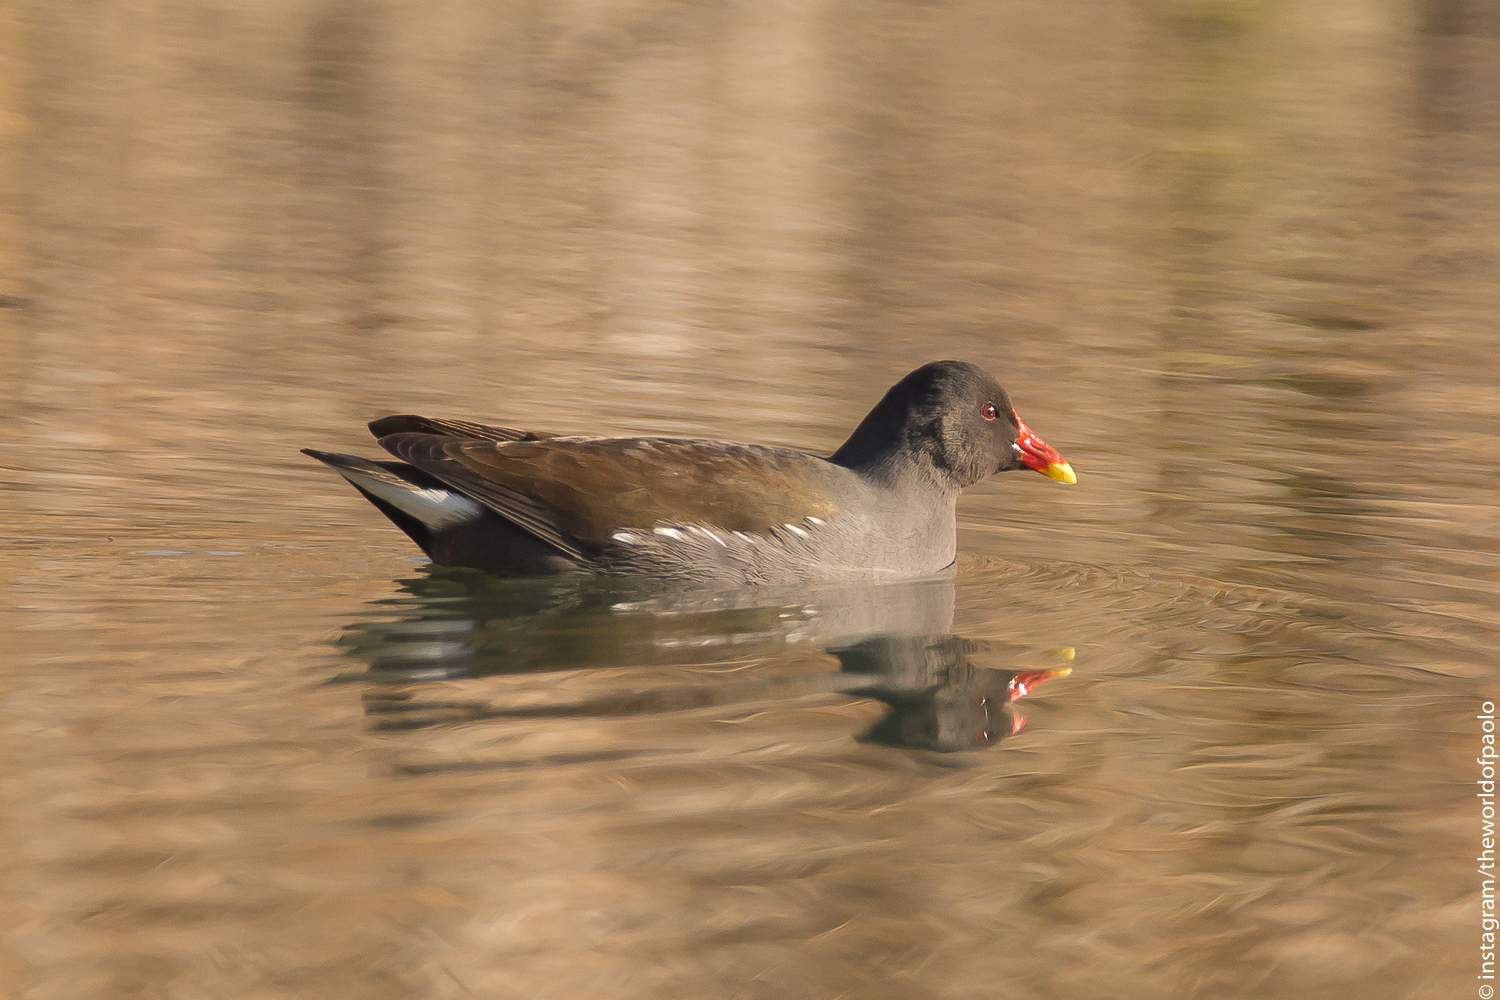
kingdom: Animalia
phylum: Chordata
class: Aves
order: Gruiformes
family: Rallidae
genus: Gallinula
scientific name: Gallinula chloropus
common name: Common moorhen
